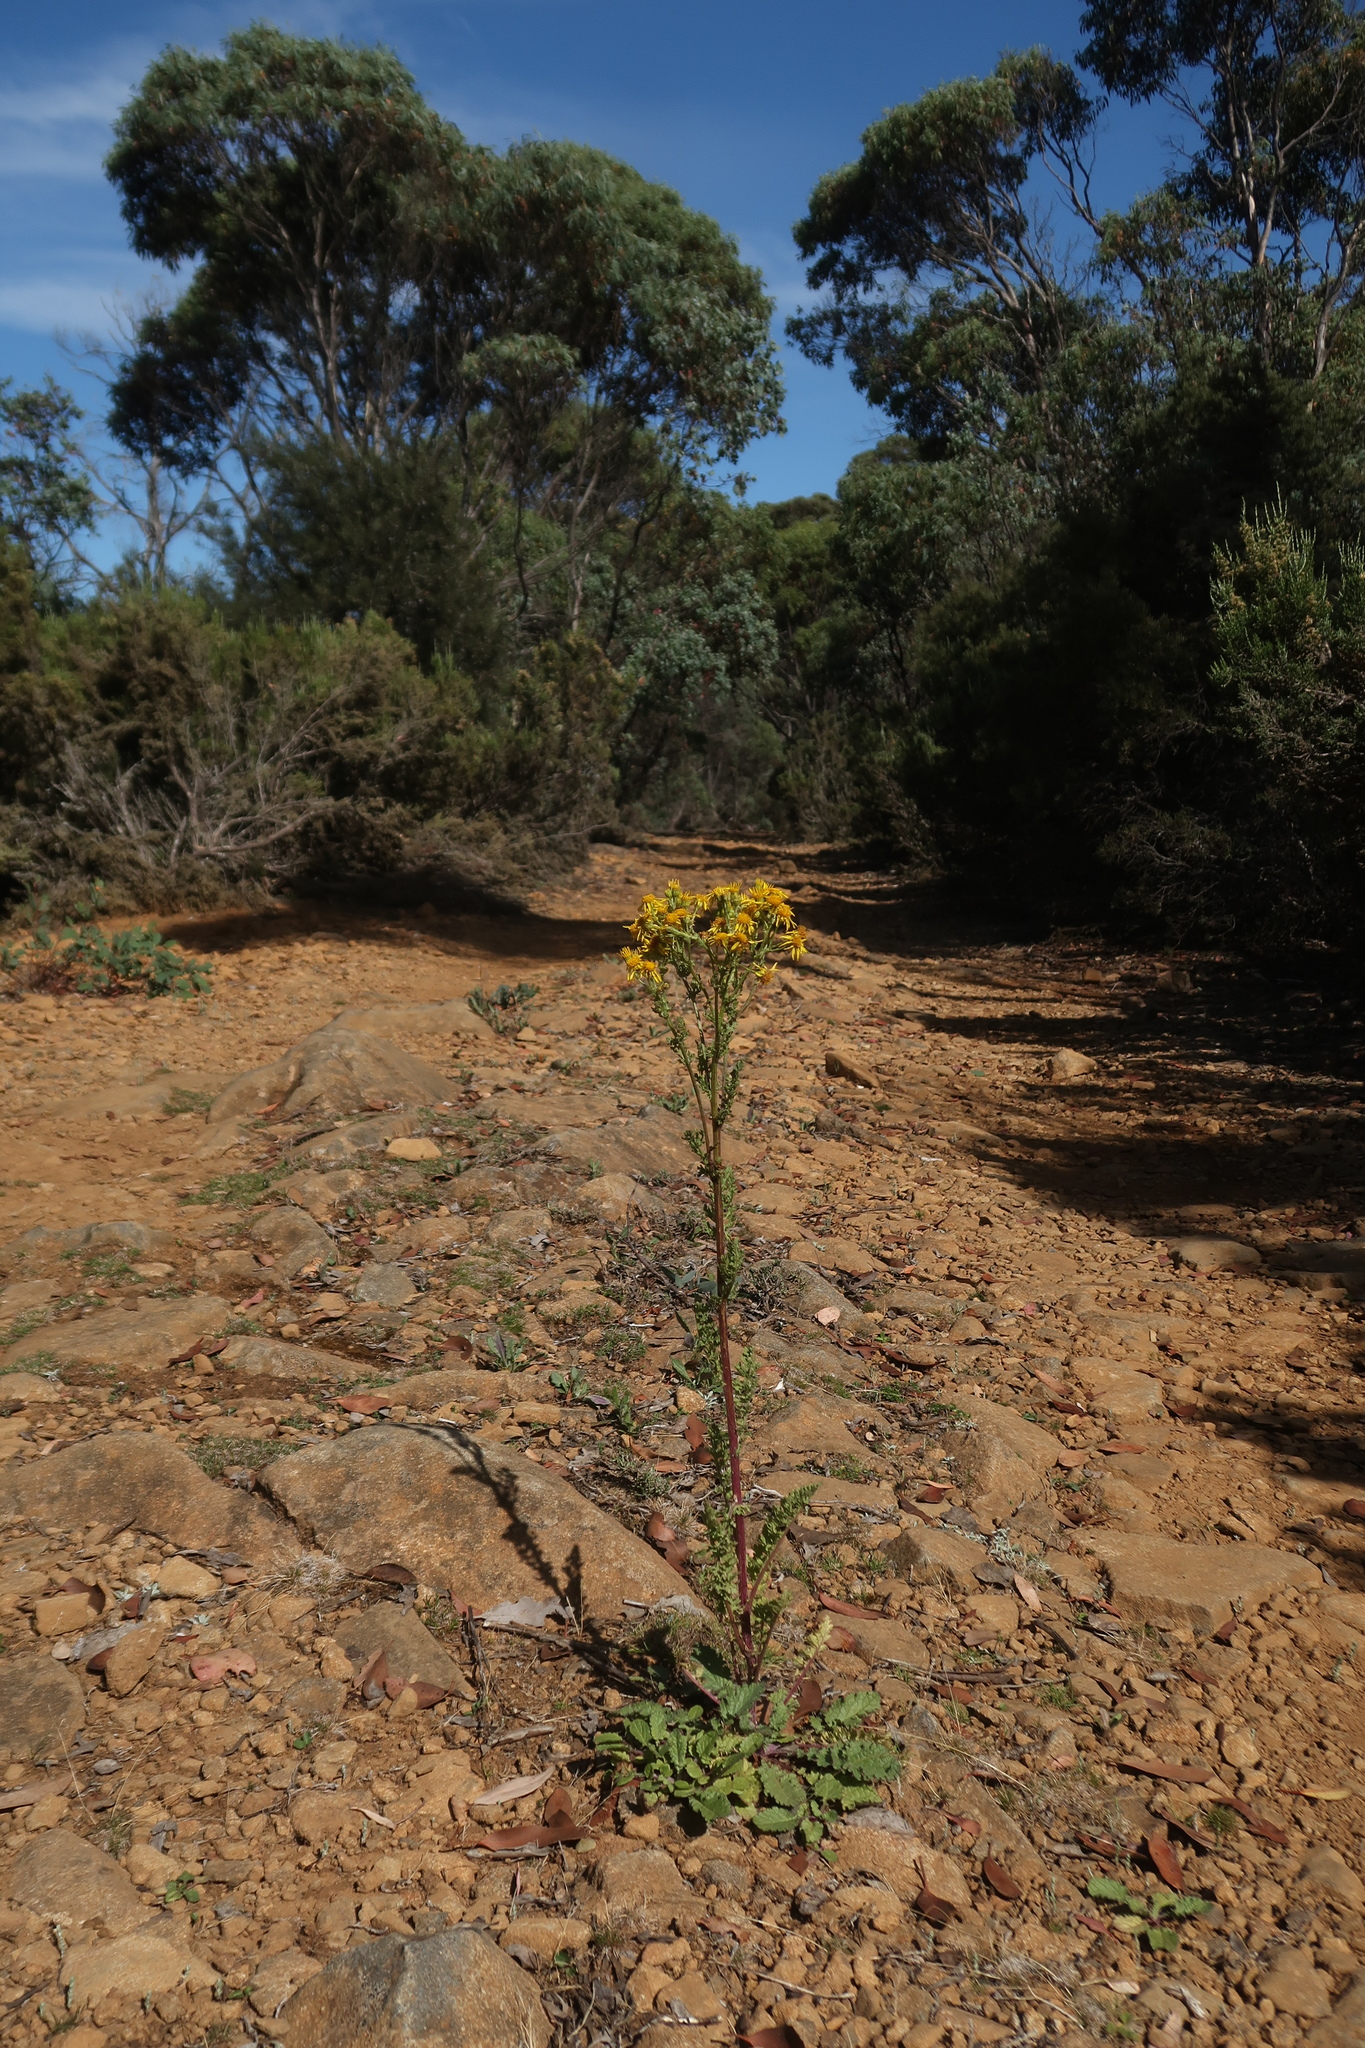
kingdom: Plantae
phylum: Tracheophyta
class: Magnoliopsida
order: Asterales
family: Asteraceae
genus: Jacobaea
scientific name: Jacobaea vulgaris
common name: Stinking willie
